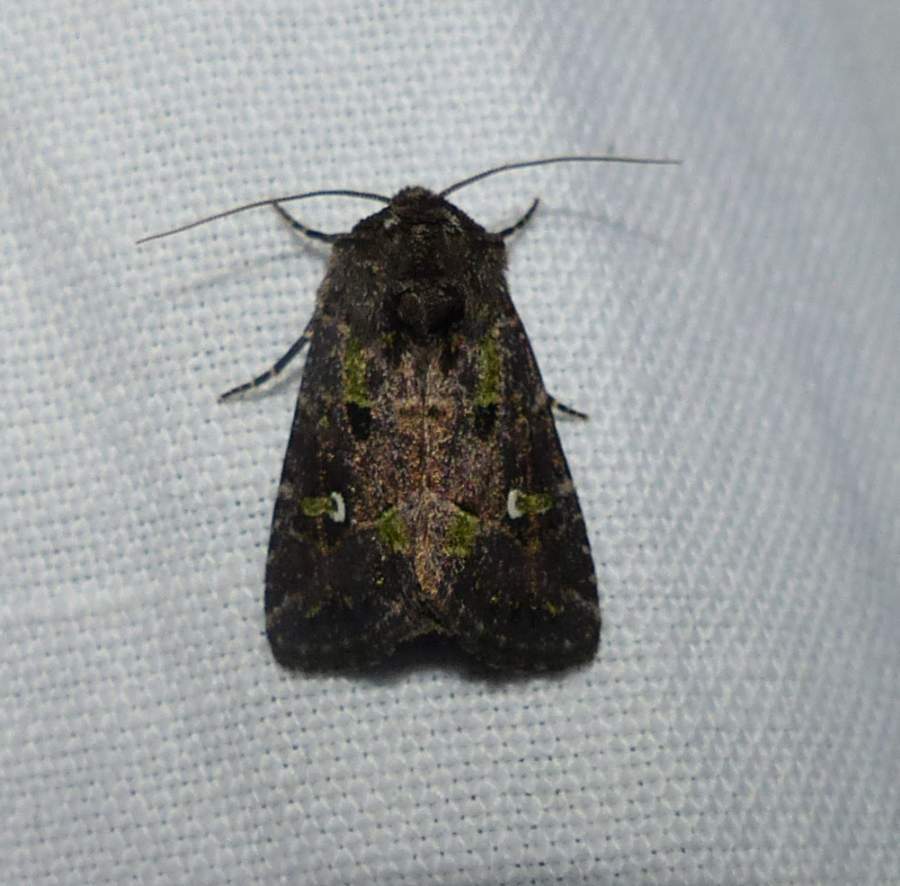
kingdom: Animalia
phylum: Arthropoda
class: Insecta
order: Lepidoptera
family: Noctuidae
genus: Lacinipolia
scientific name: Lacinipolia renigera
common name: Kidney-spotted minor
